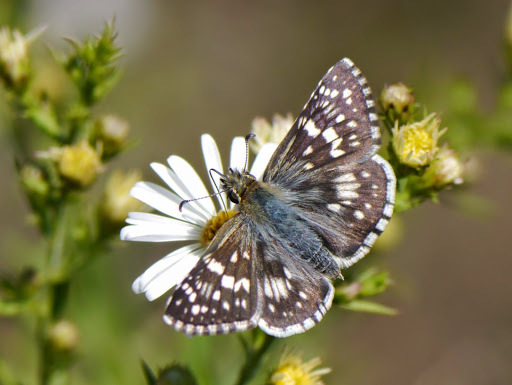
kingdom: Animalia
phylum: Arthropoda
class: Insecta
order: Lepidoptera
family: Hesperiidae
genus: Burnsius
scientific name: Burnsius communis
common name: Common checkered-skipper
